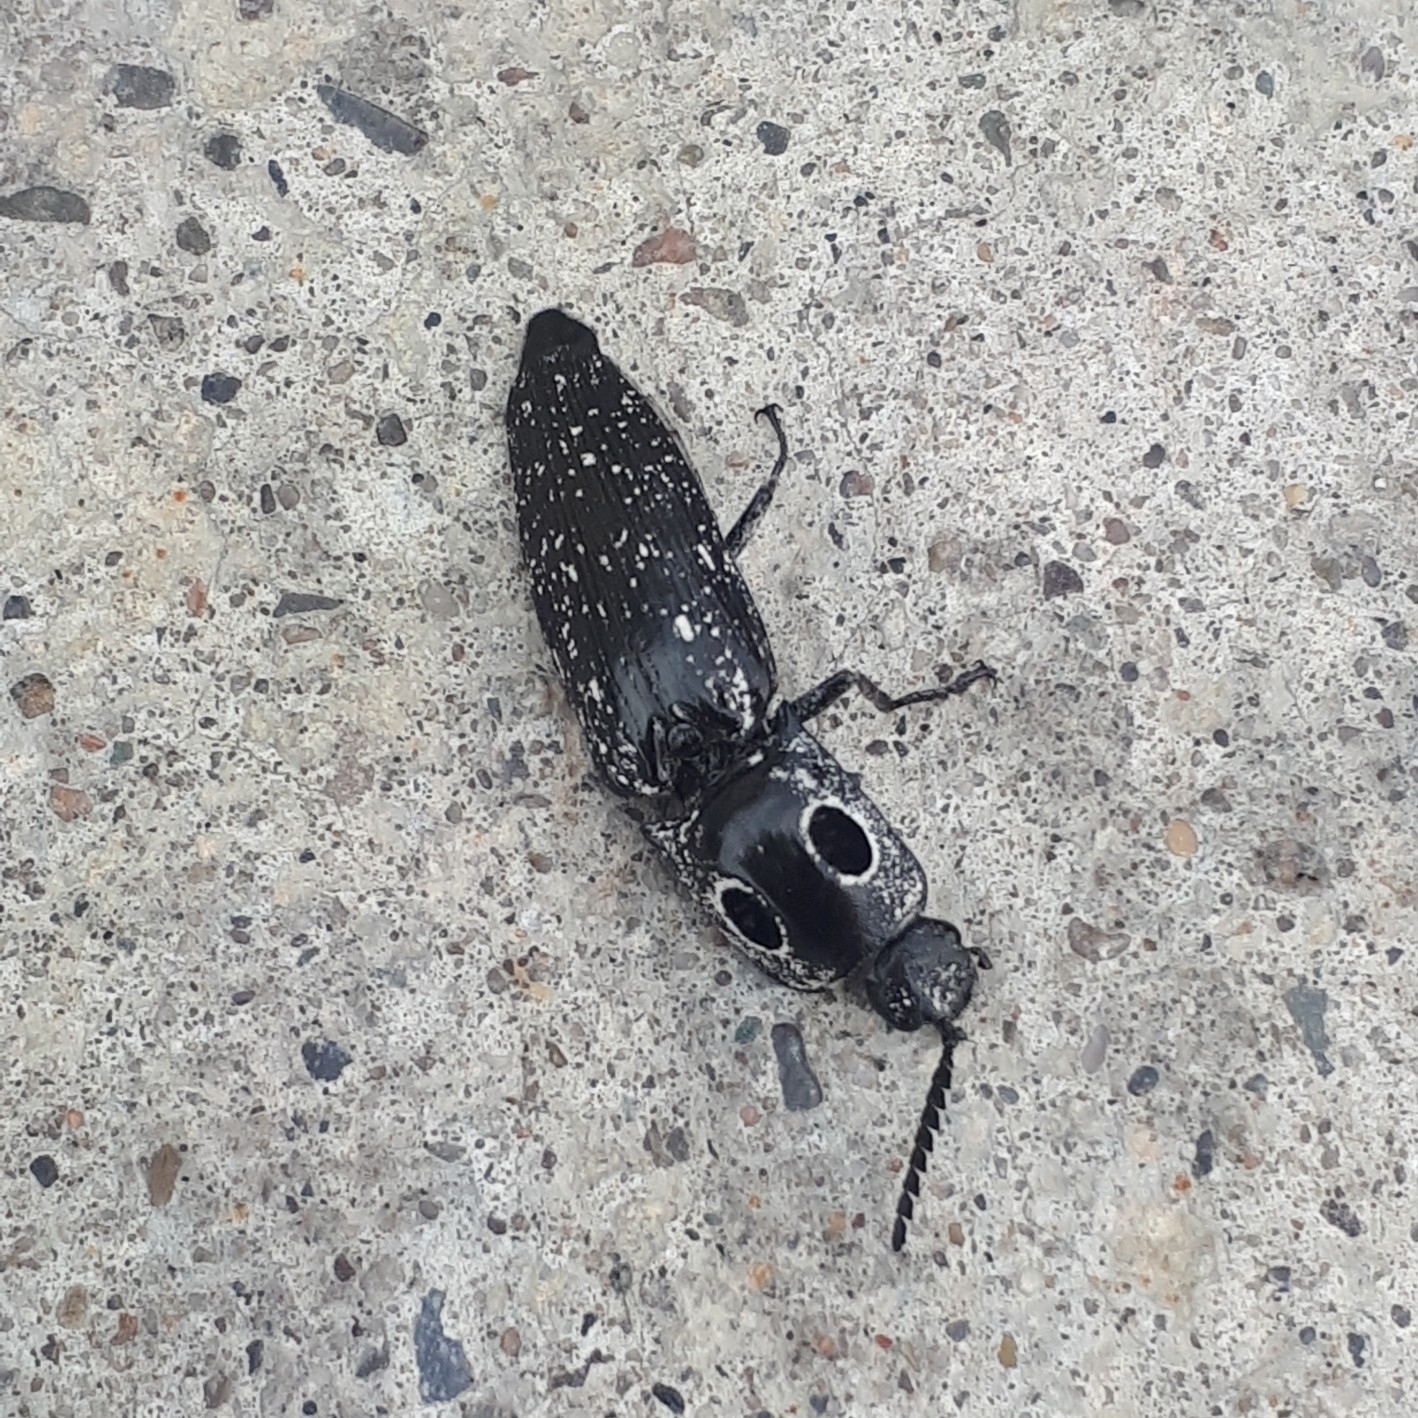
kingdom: Animalia
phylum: Arthropoda
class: Insecta
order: Coleoptera
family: Elateridae
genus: Alaus
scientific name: Alaus oculatus
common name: Eastern eyed click beetle
